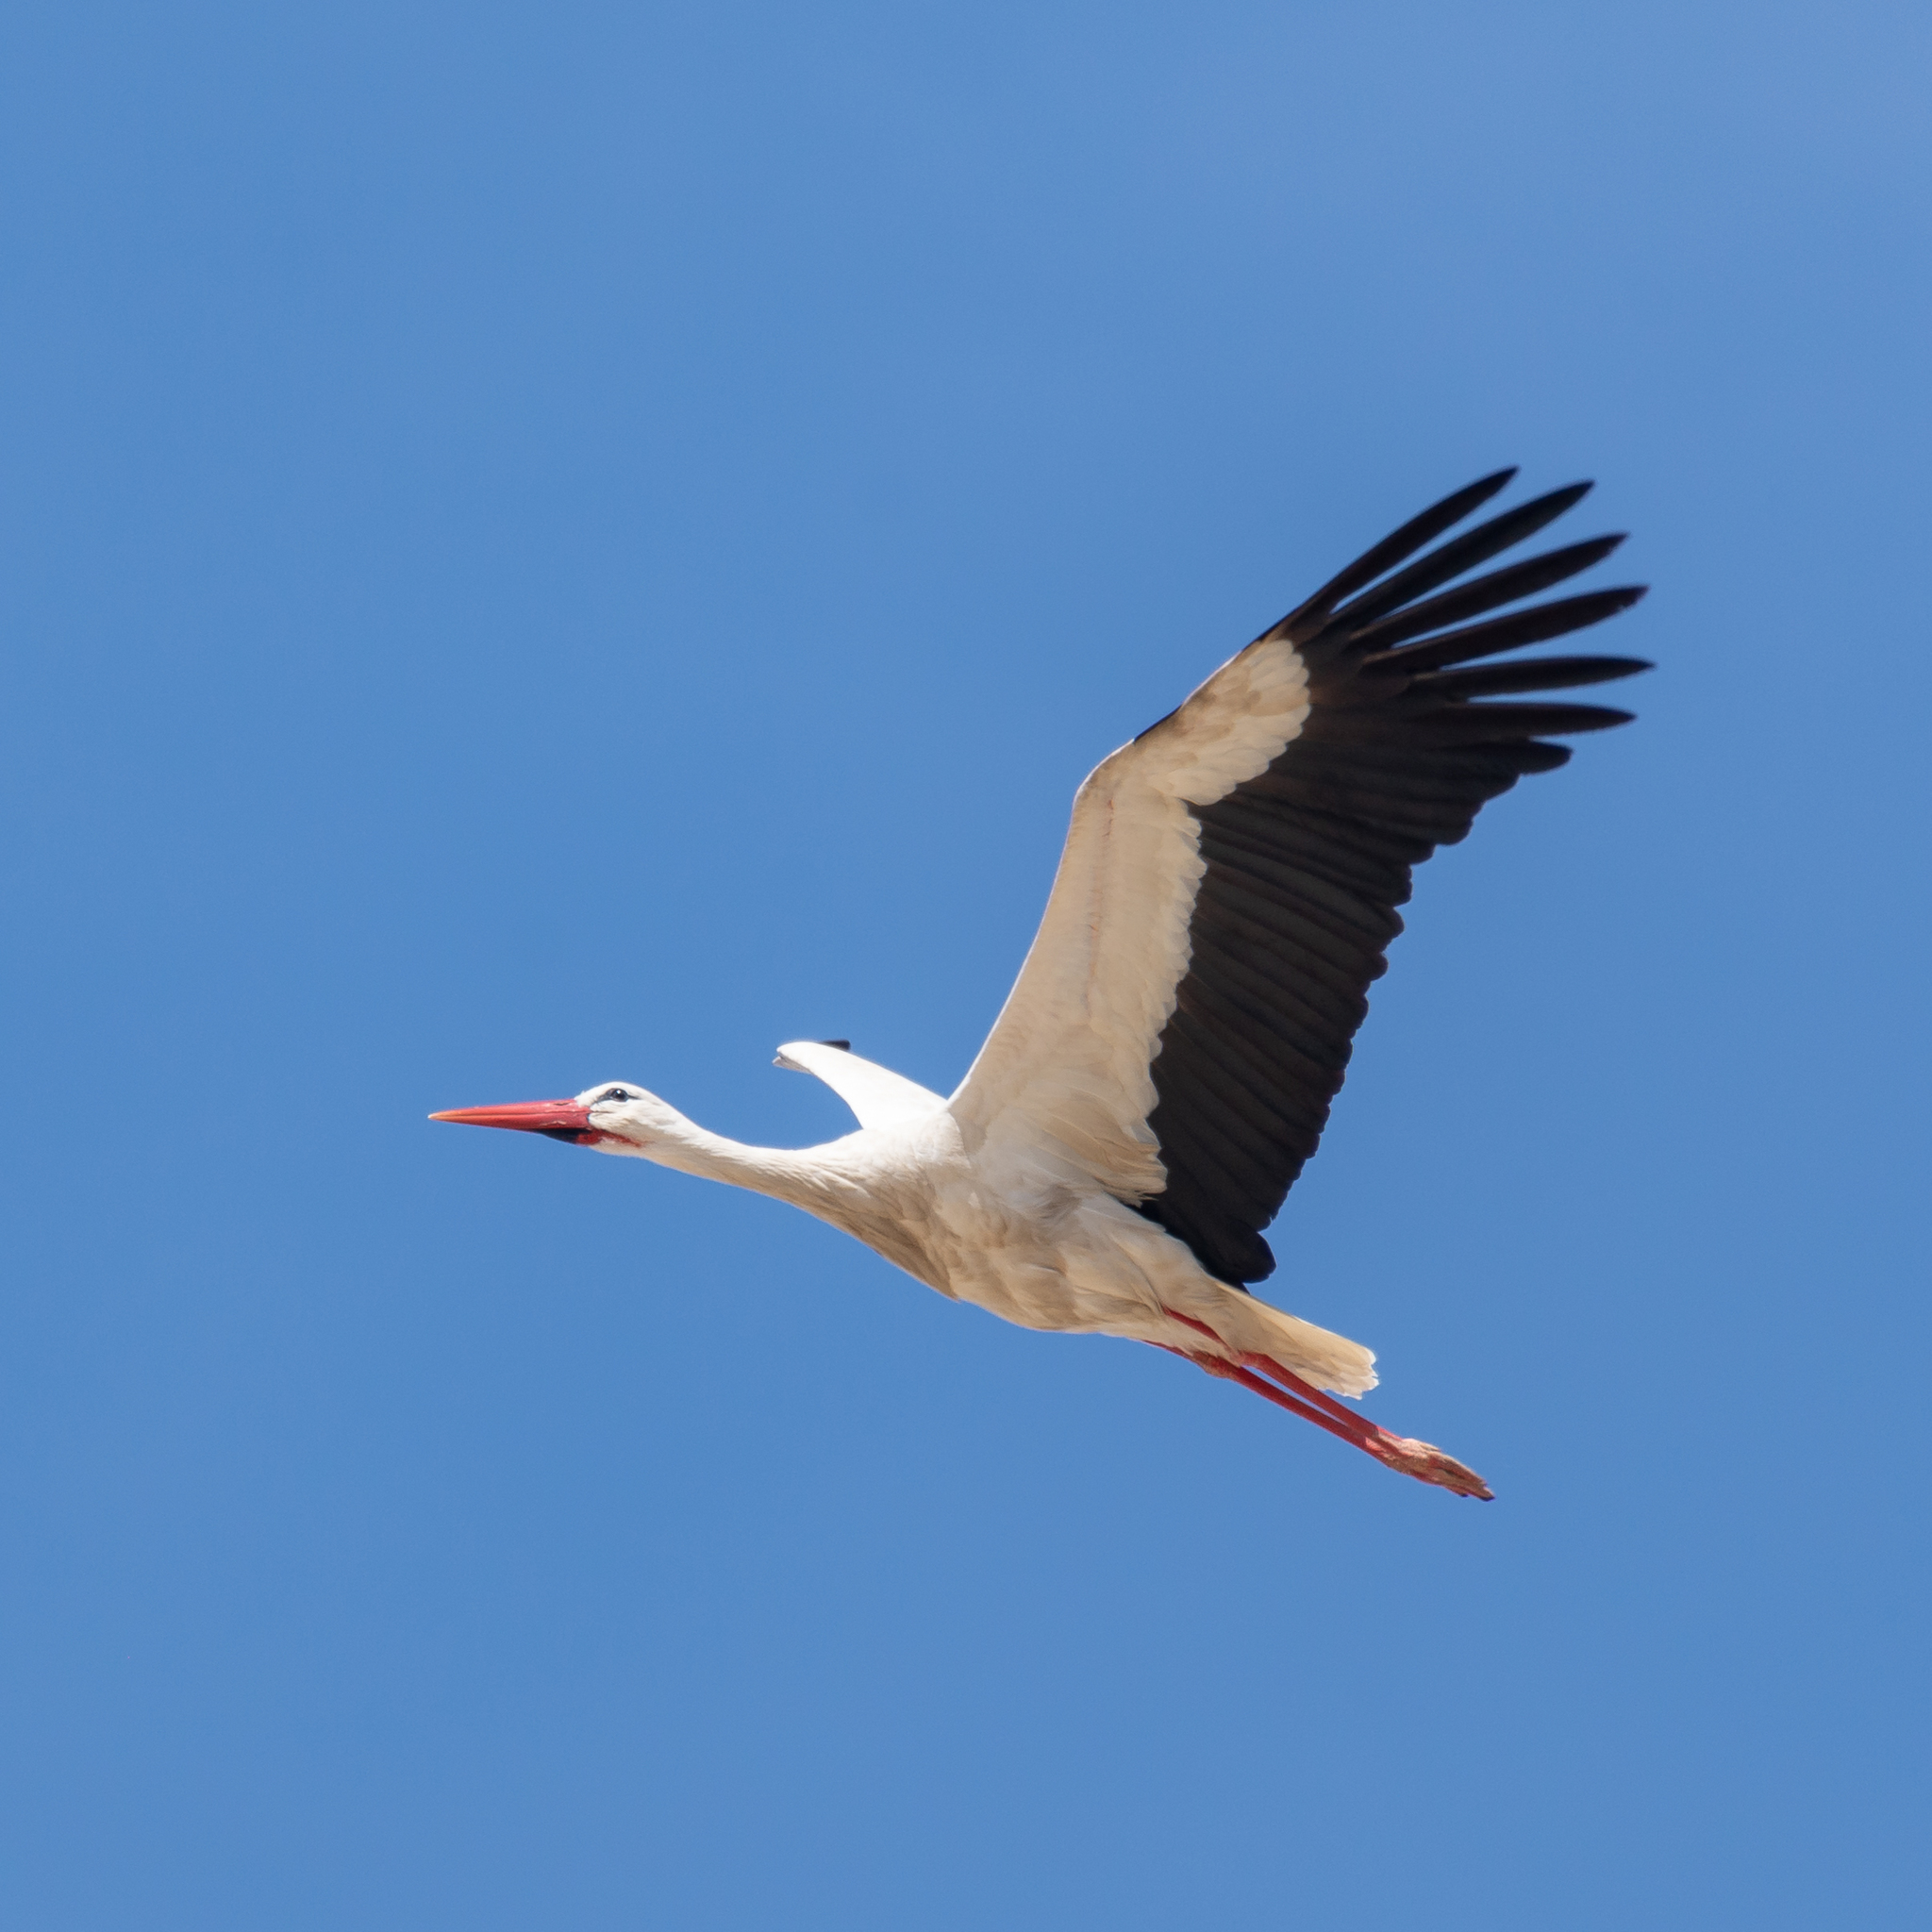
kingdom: Animalia
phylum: Chordata
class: Aves
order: Ciconiiformes
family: Ciconiidae
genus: Ciconia
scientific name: Ciconia ciconia
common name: White stork
